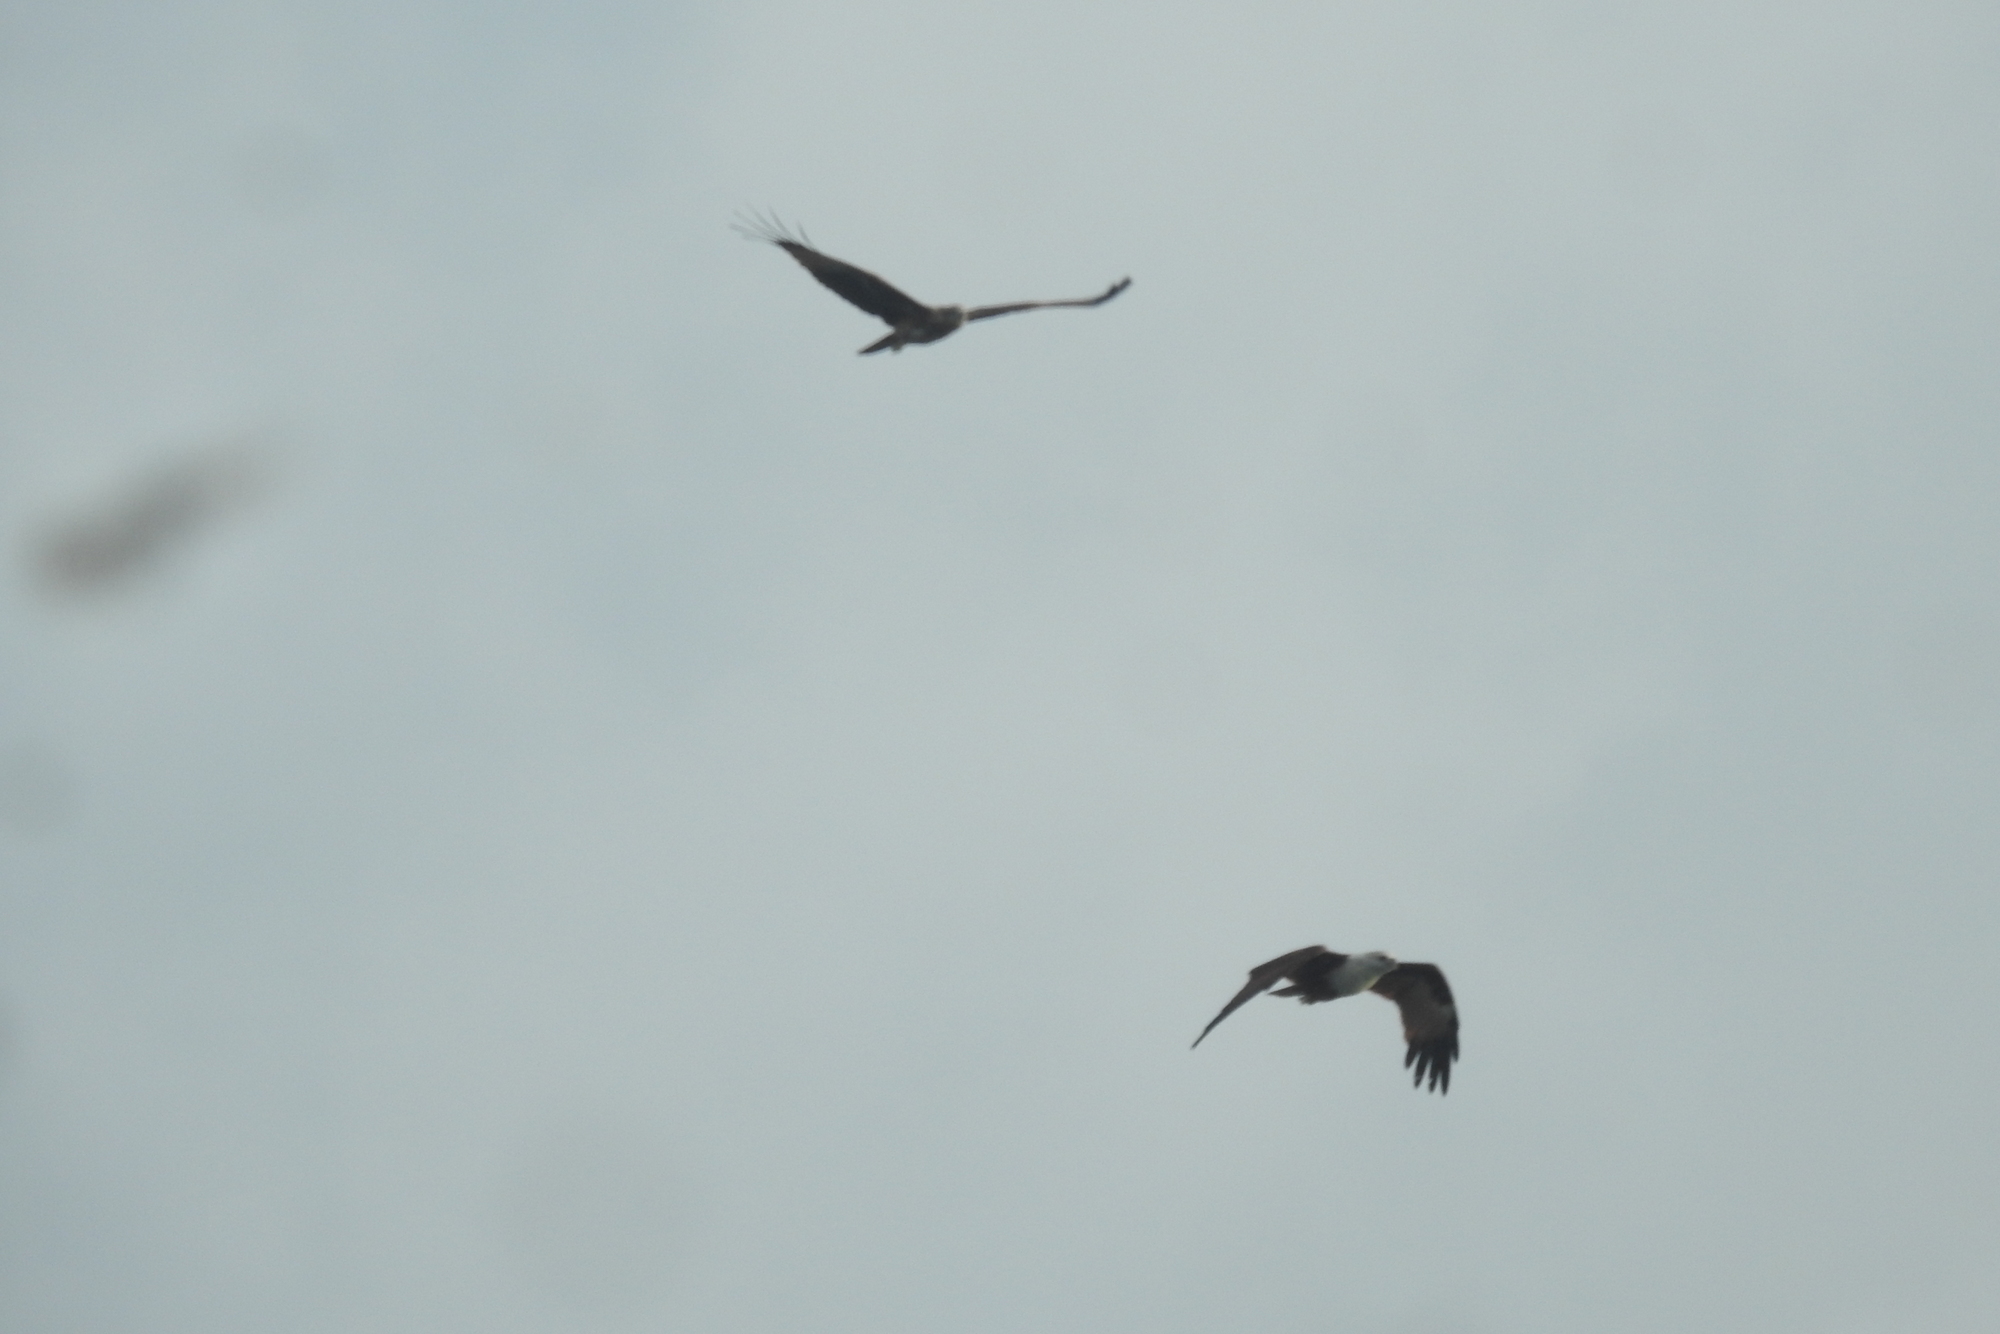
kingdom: Animalia
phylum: Chordata
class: Aves
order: Accipitriformes
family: Accipitridae
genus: Haliastur
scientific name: Haliastur indus
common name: Brahminy kite
